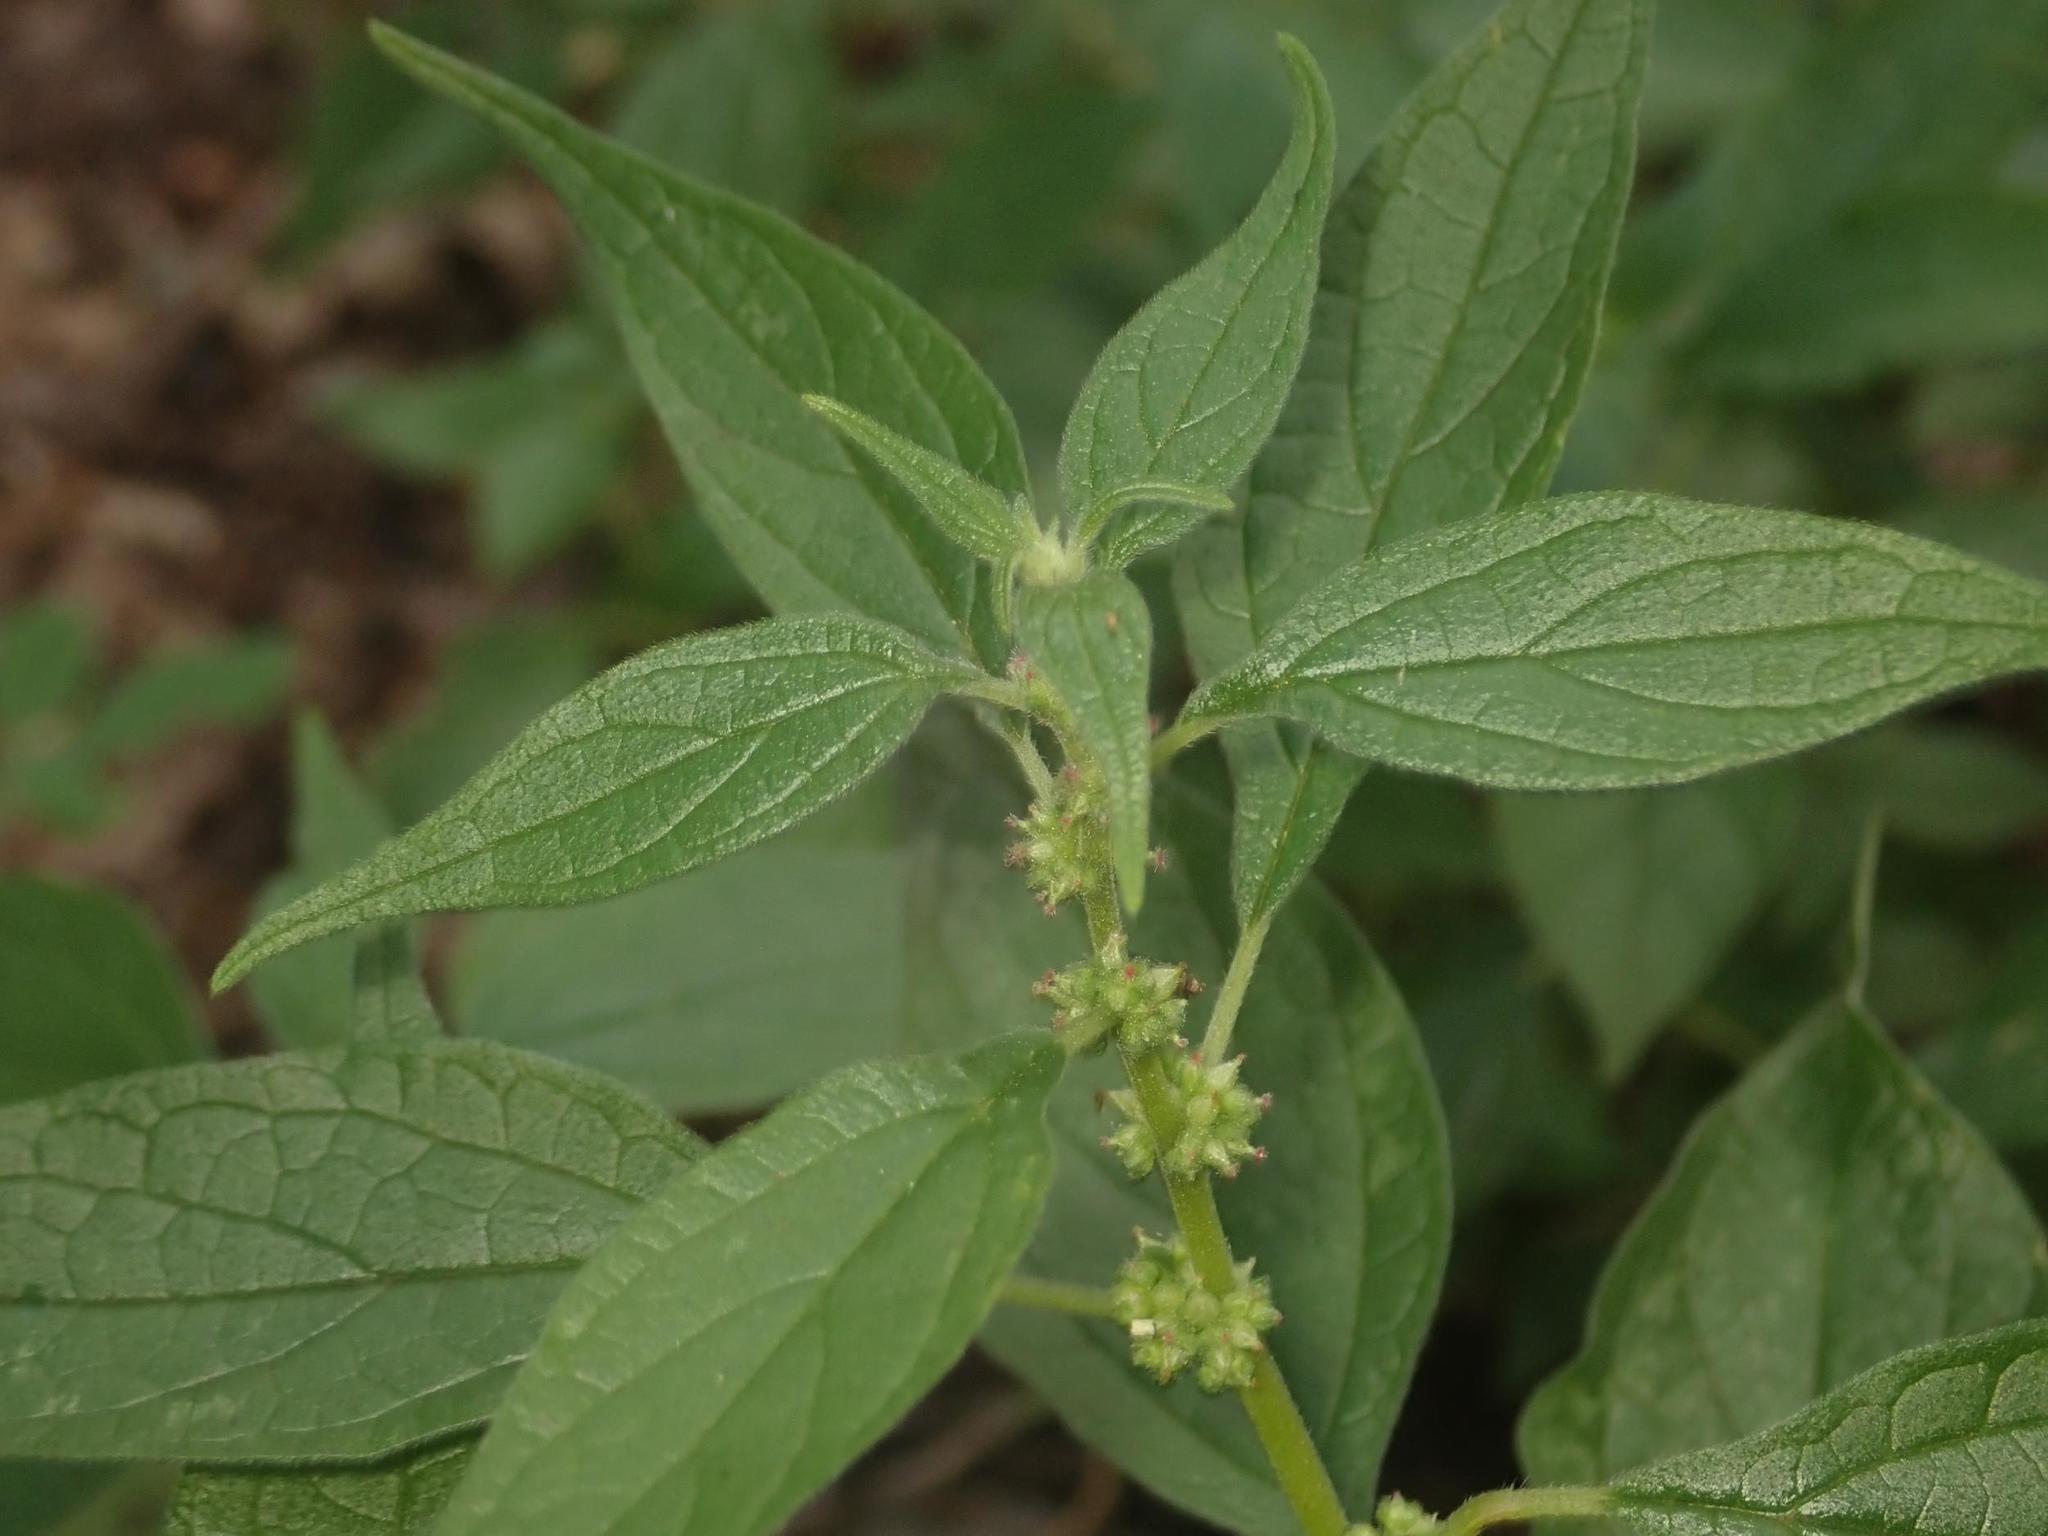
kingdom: Plantae
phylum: Tracheophyta
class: Magnoliopsida
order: Rosales
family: Urticaceae
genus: Parietaria
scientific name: Parietaria officinalis
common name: Eastern pellitory-of-the-wall
